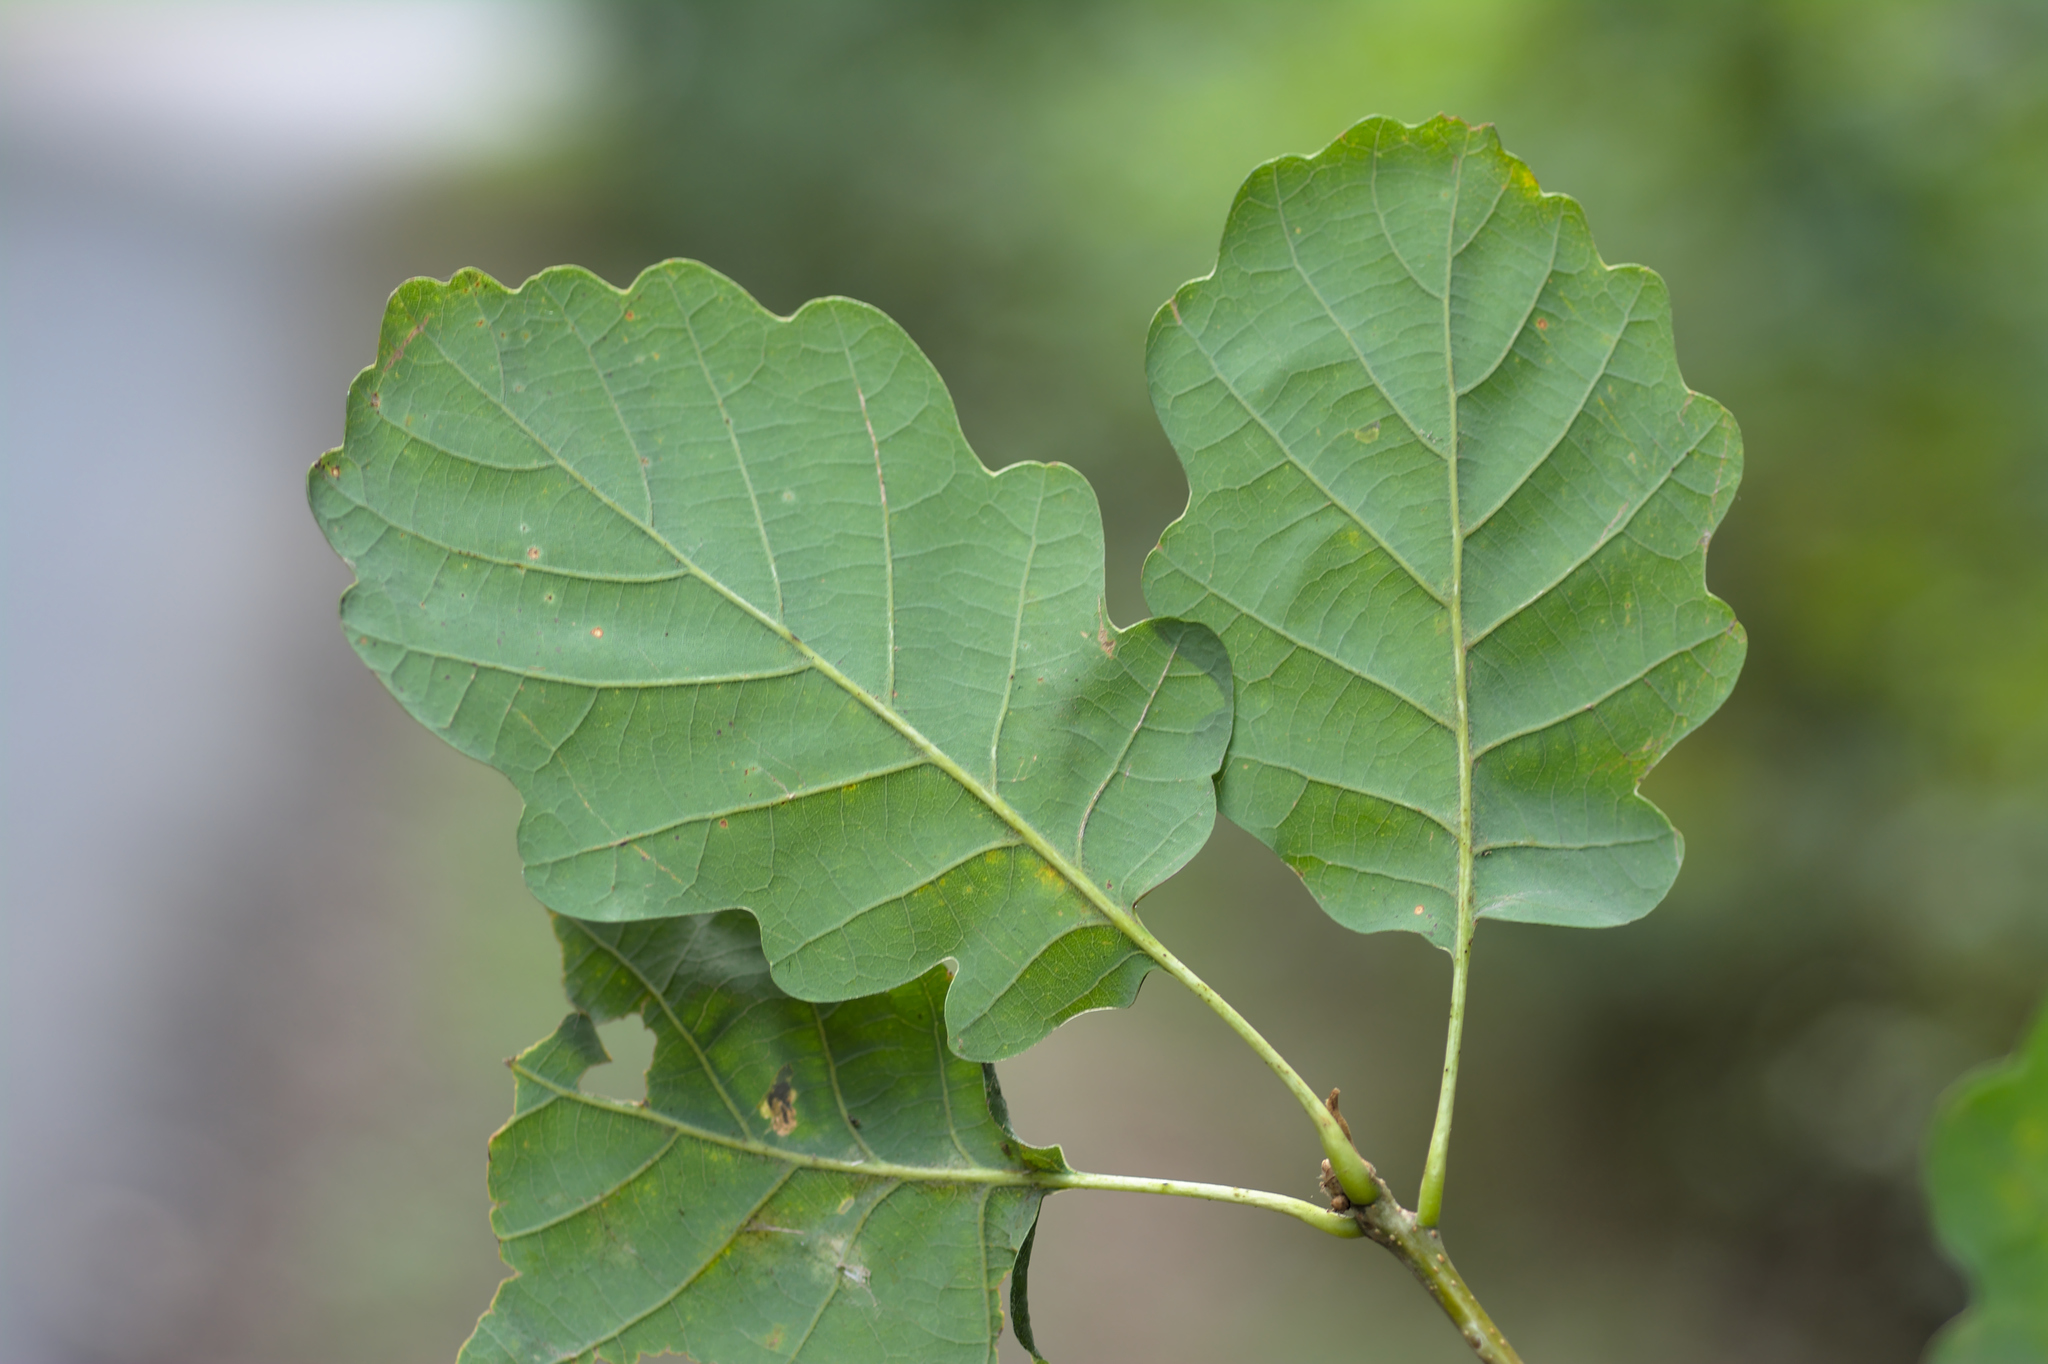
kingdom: Plantae
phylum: Tracheophyta
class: Magnoliopsida
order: Fagales
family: Fagaceae
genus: Quercus
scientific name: Quercus petraea
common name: Sessile oak
